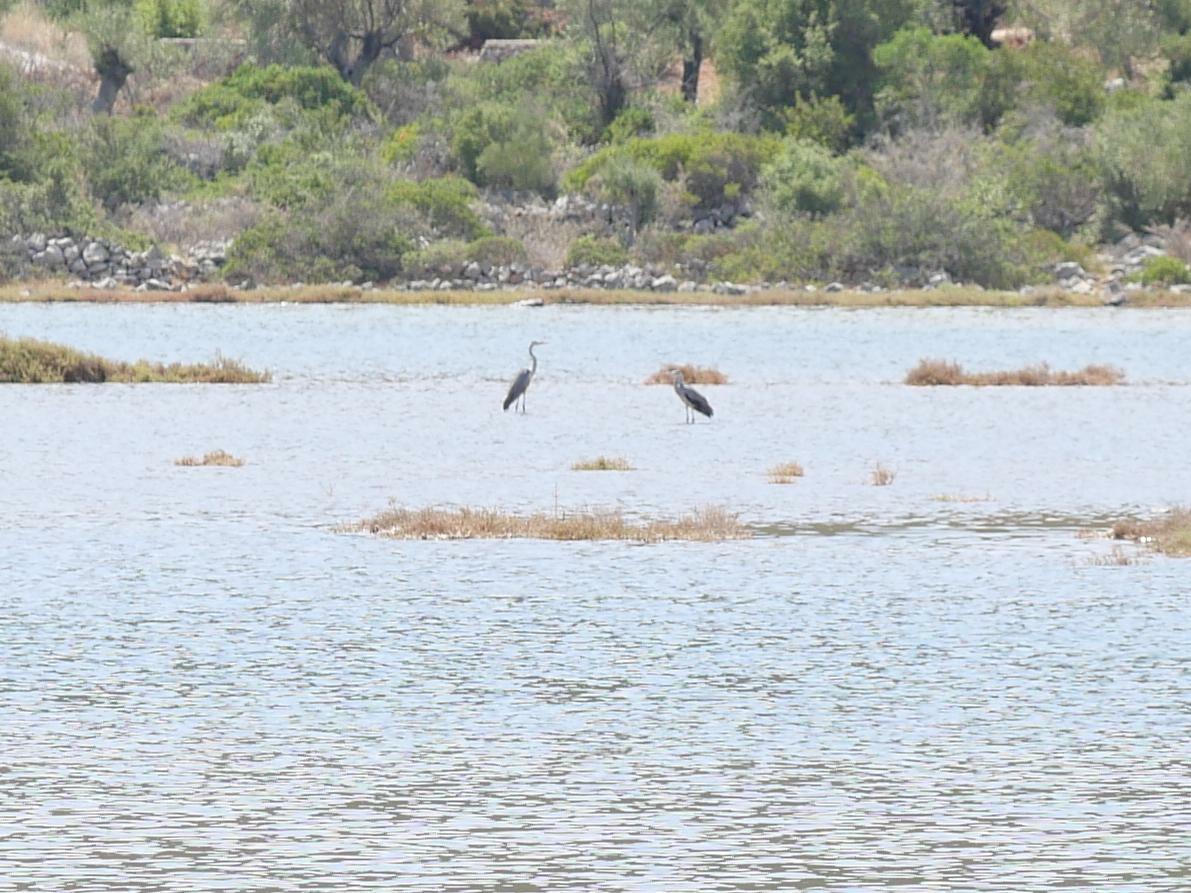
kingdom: Animalia
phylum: Chordata
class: Aves
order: Pelecaniformes
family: Ardeidae
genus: Ardea
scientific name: Ardea cinerea
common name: Grey heron
